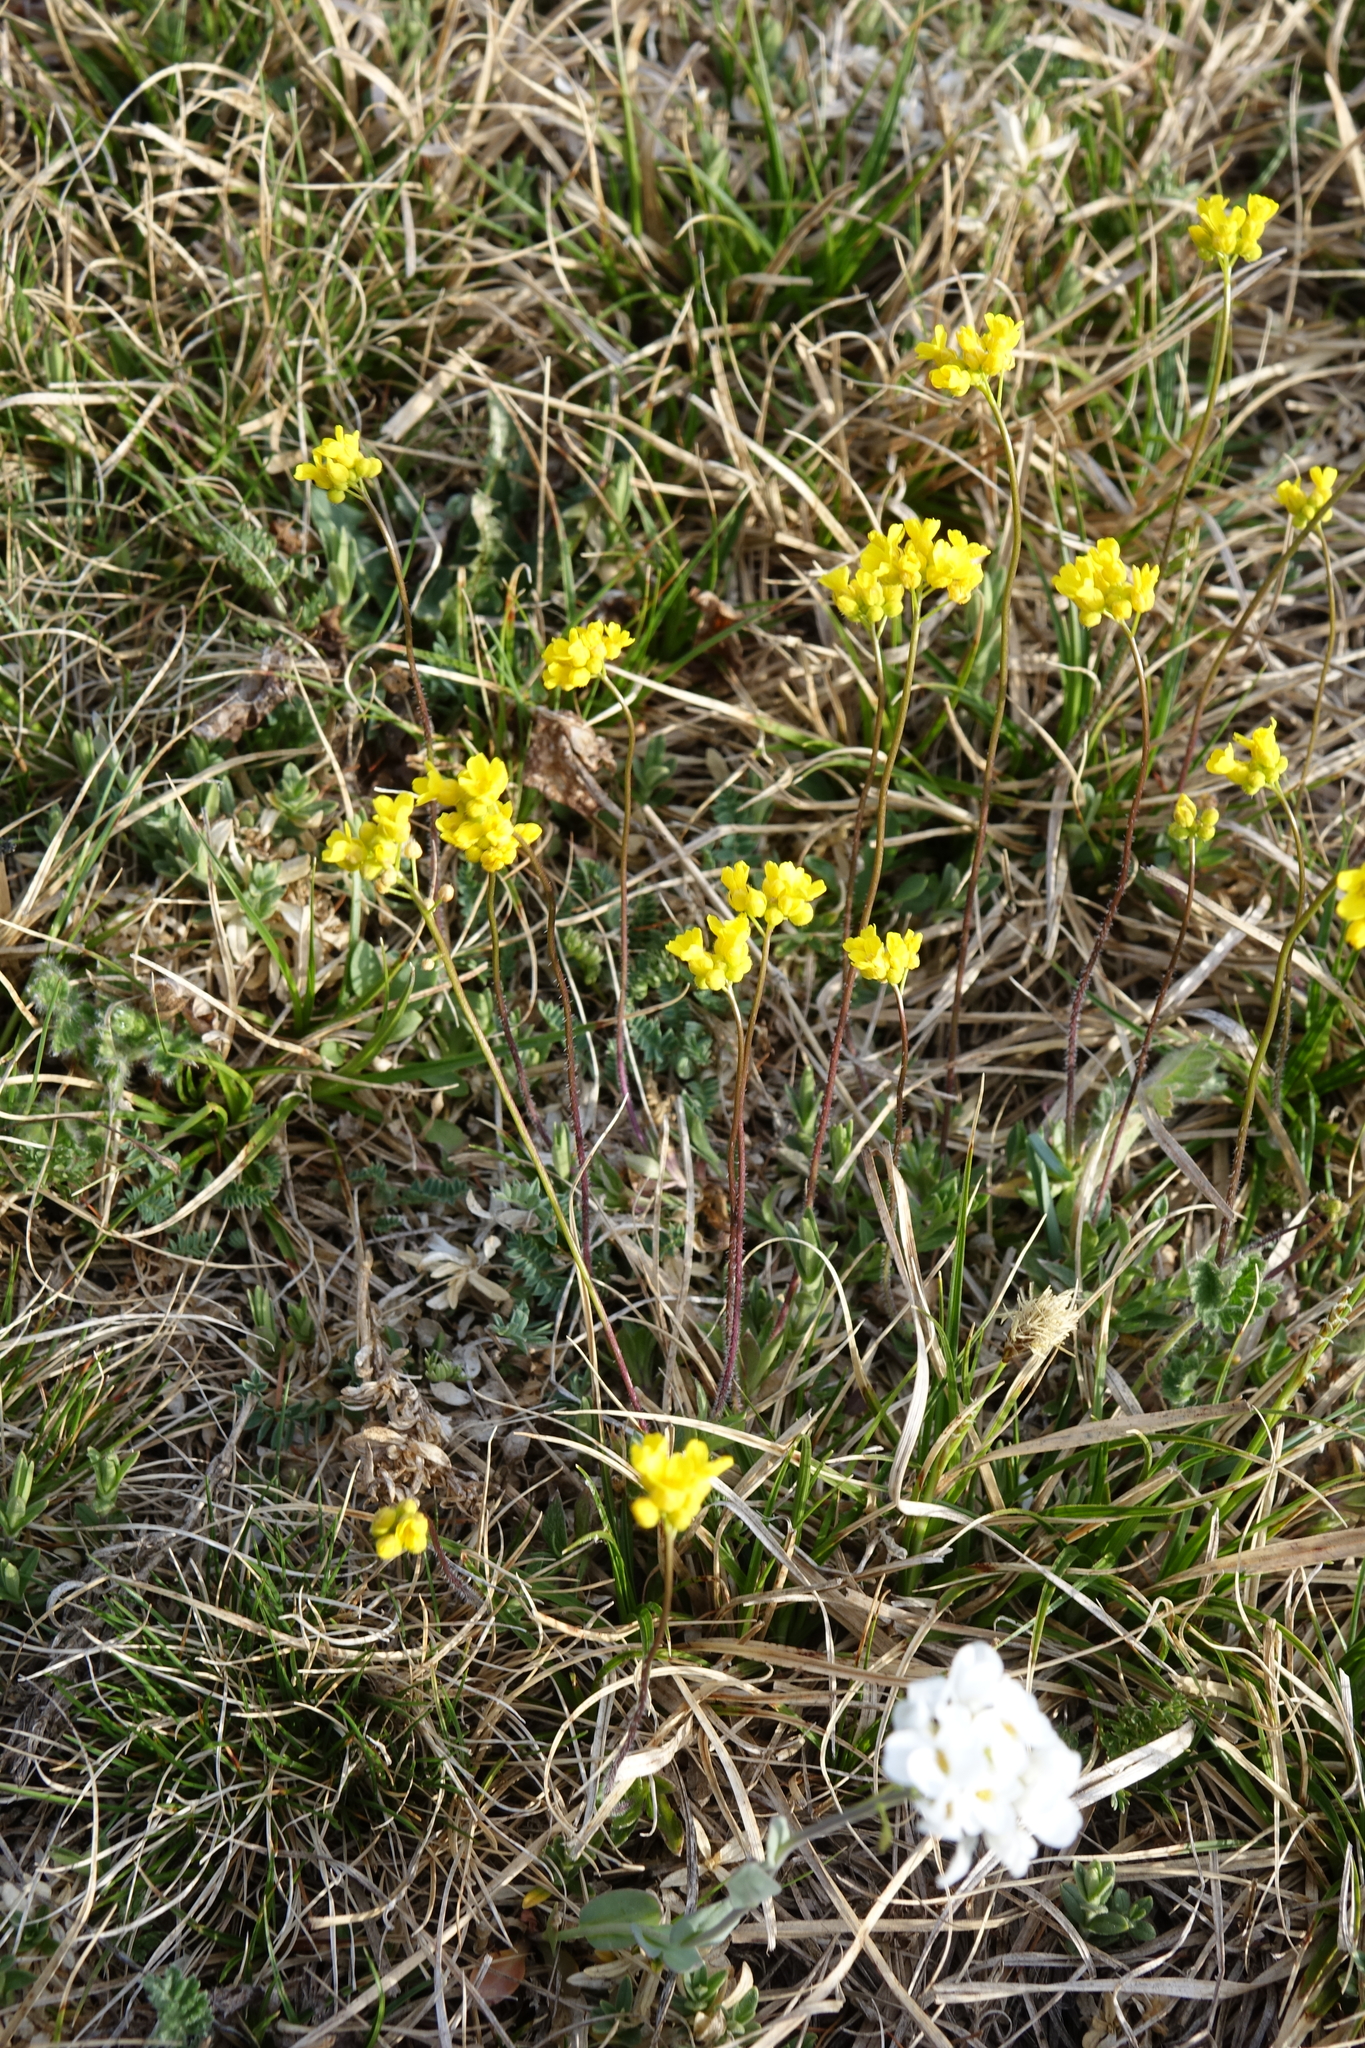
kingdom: Plantae
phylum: Tracheophyta
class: Magnoliopsida
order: Brassicales
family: Brassicaceae
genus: Draba
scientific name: Draba sibirica
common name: Siberian draba
